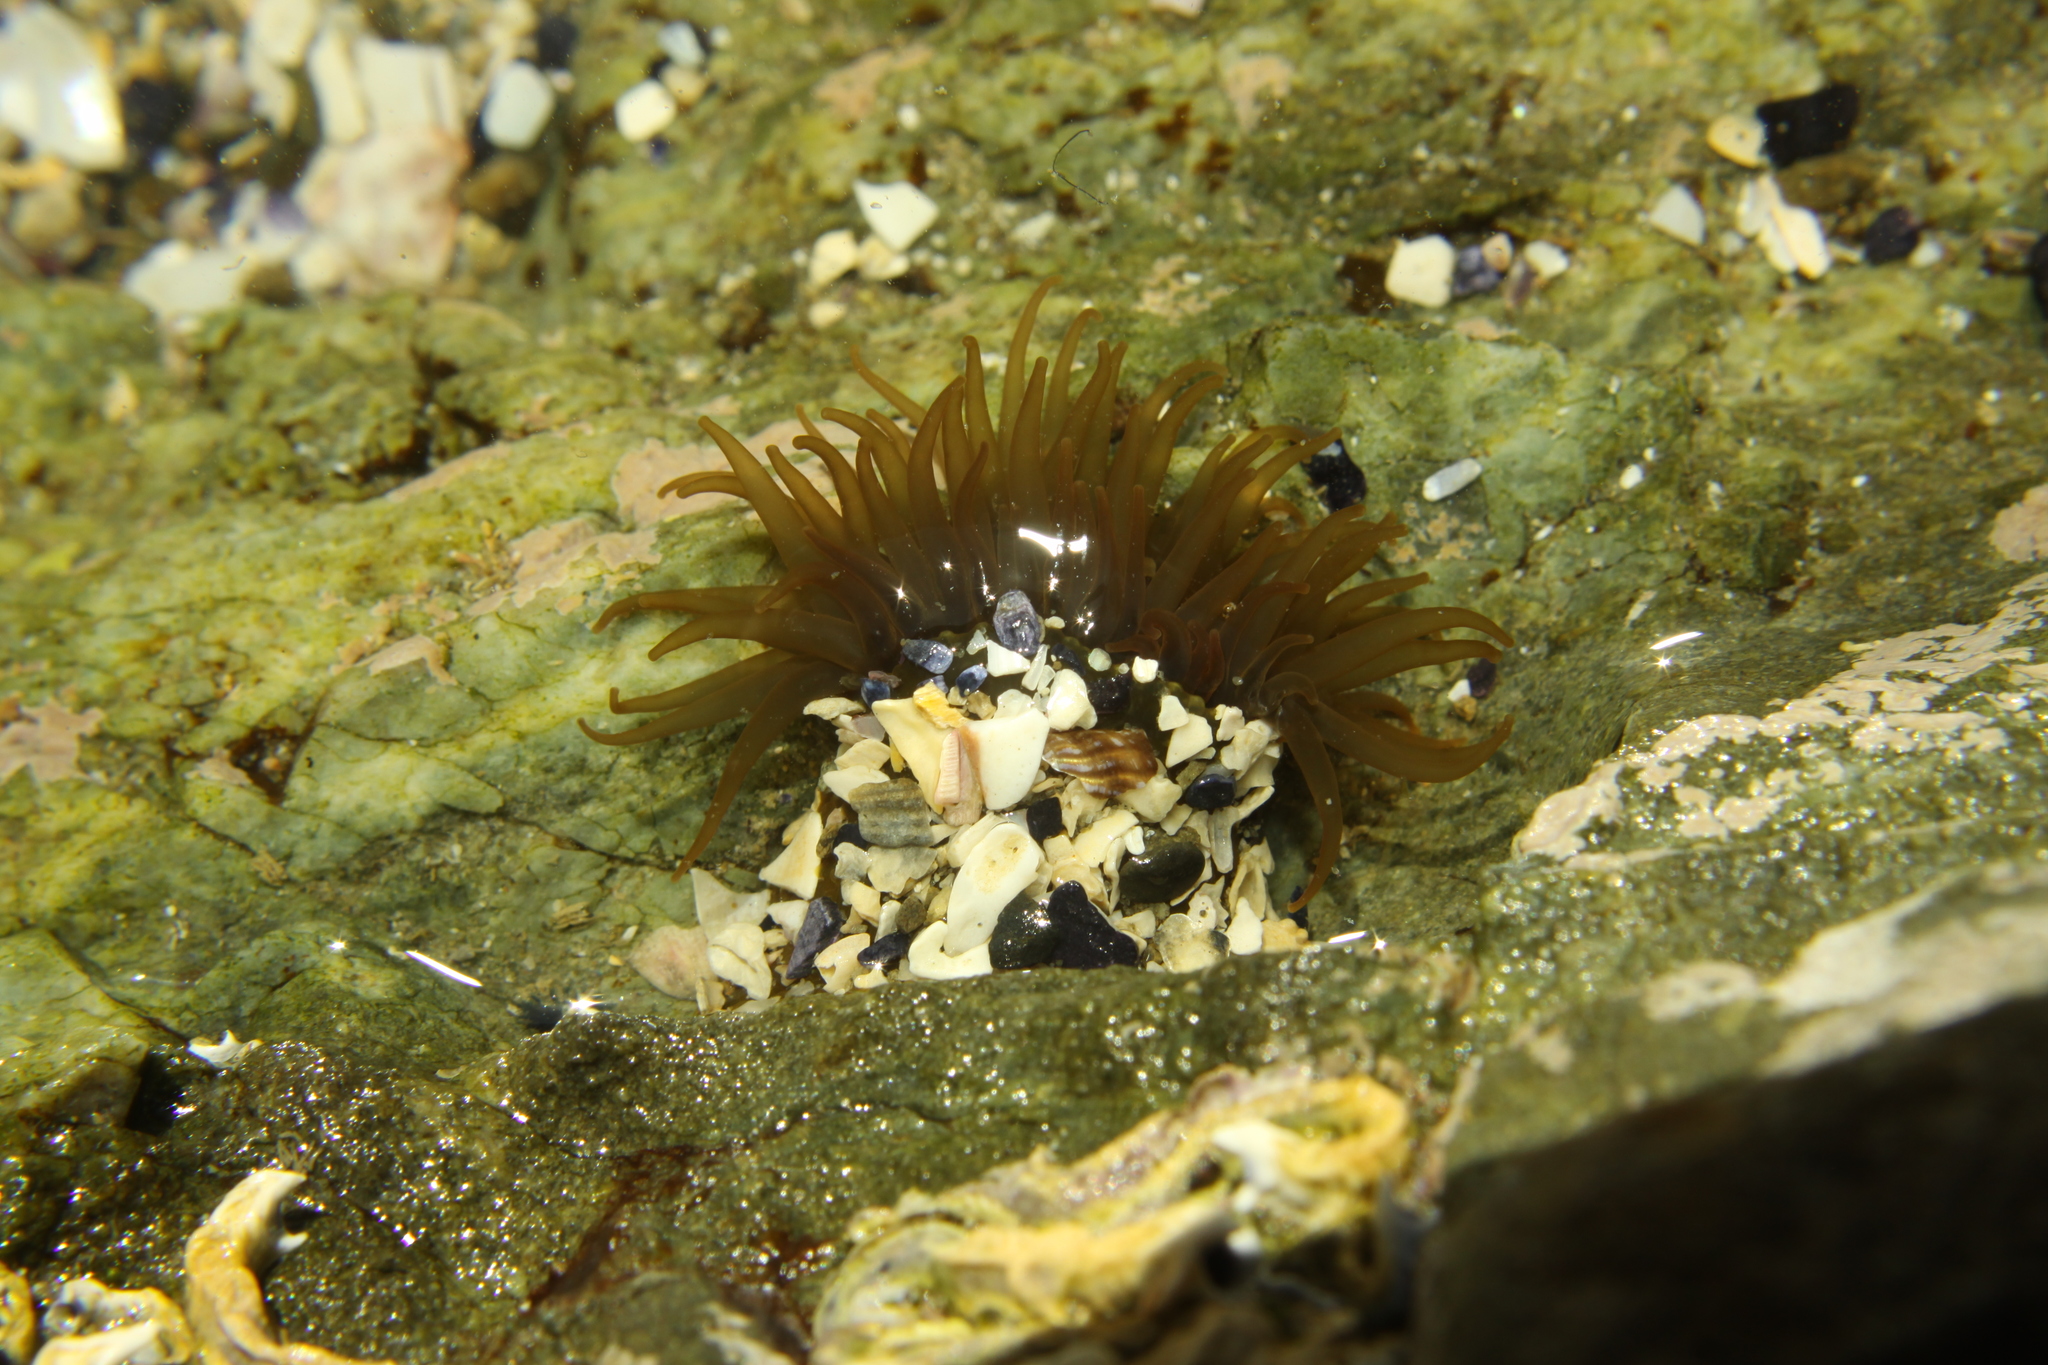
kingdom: Animalia
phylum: Cnidaria
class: Anthozoa
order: Actiniaria
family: Actiniidae
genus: Isactinia
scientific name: Isactinia olivacea
